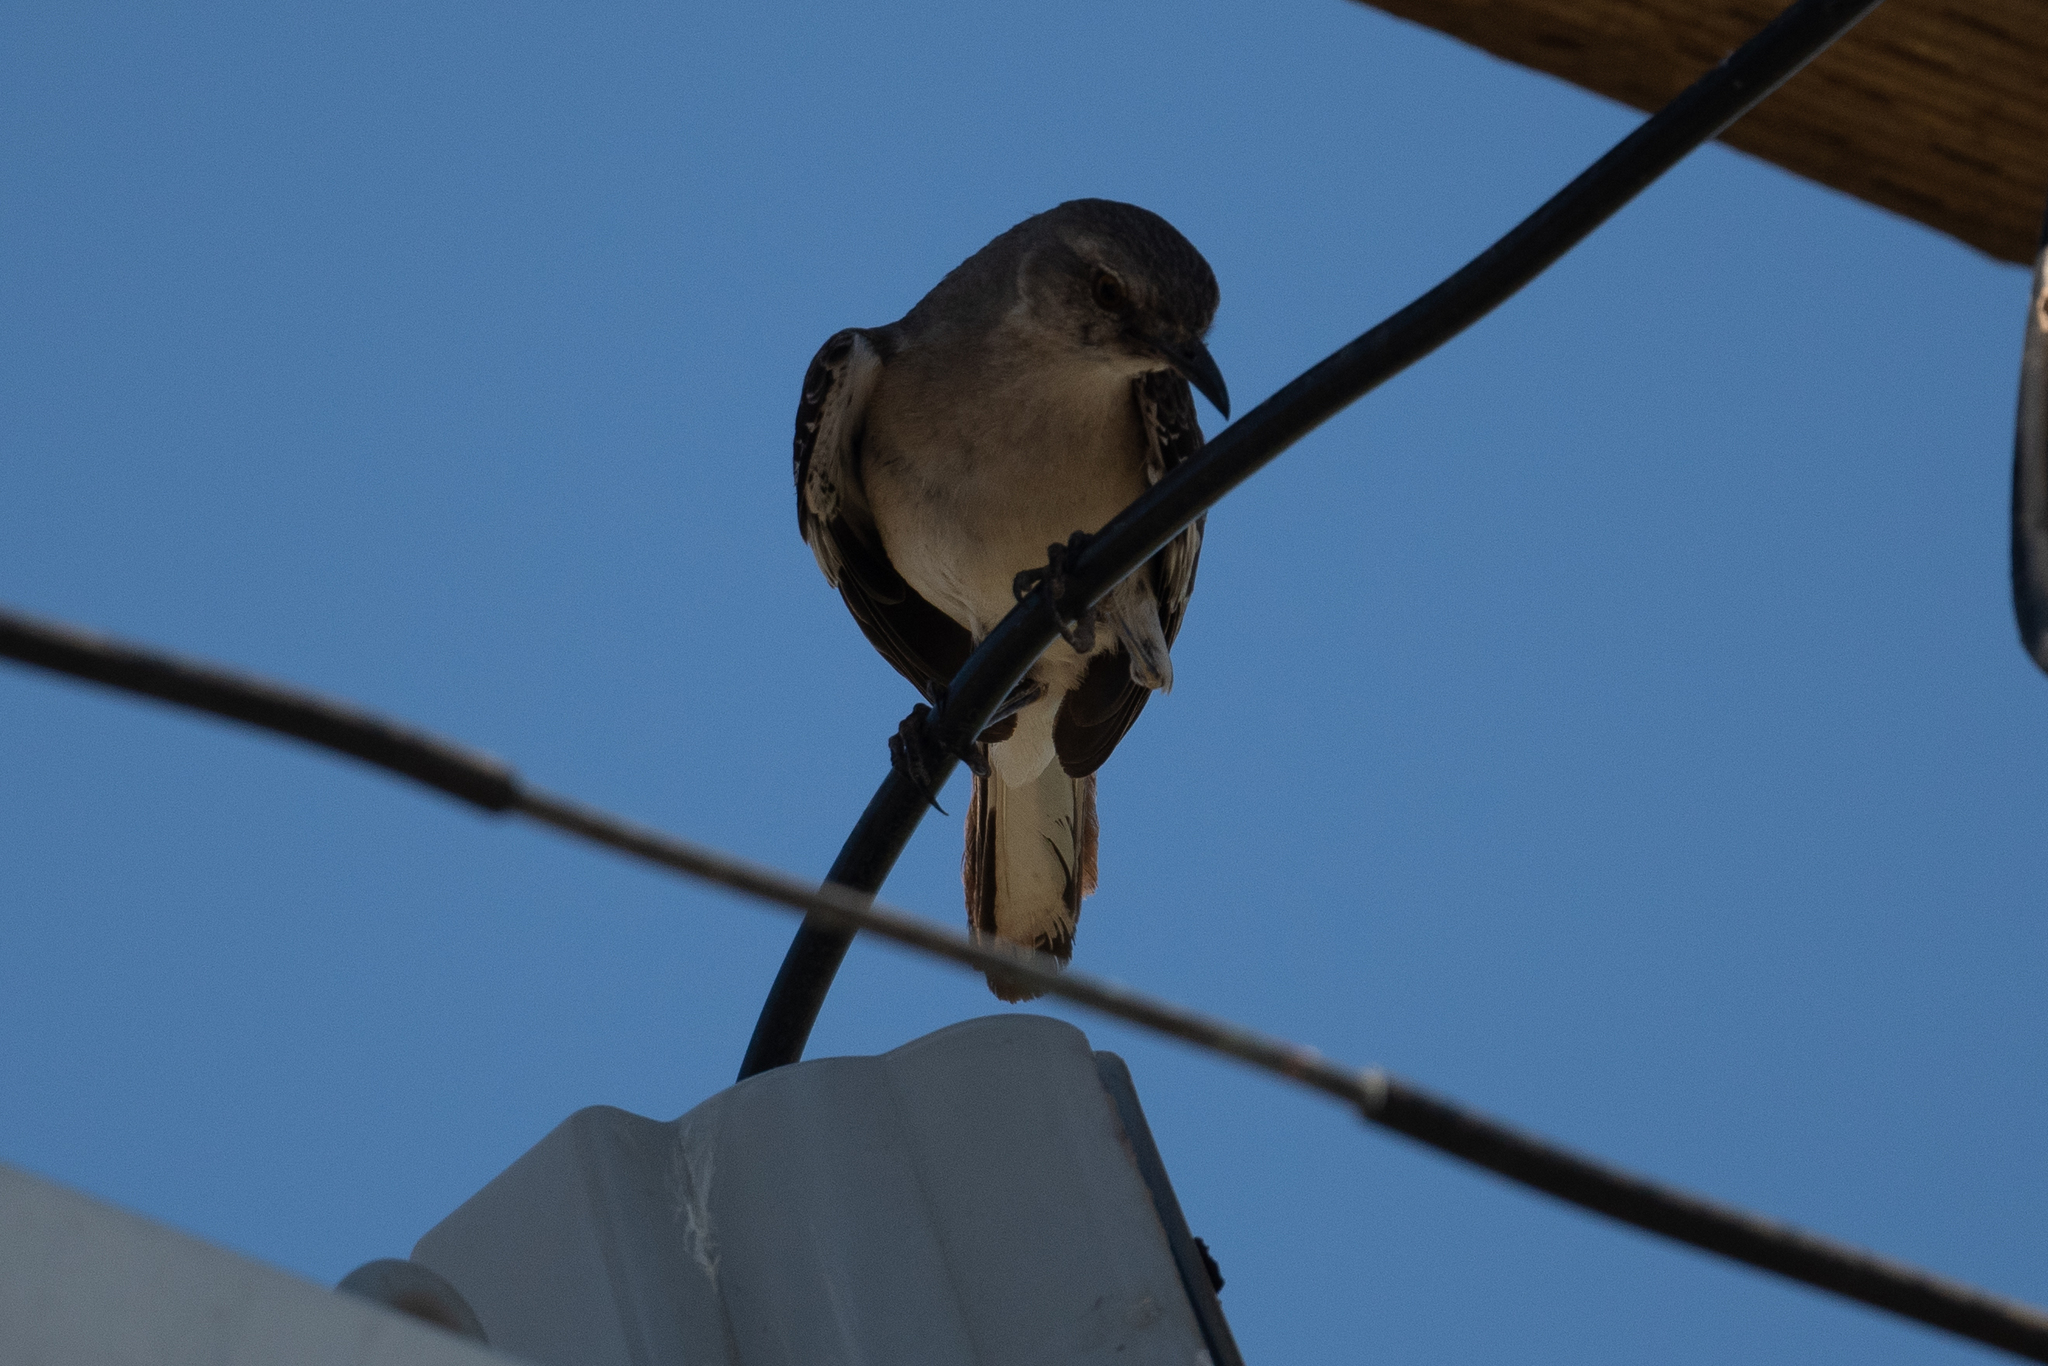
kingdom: Animalia
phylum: Chordata
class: Aves
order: Passeriformes
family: Mimidae
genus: Mimus
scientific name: Mimus polyglottos
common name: Northern mockingbird
